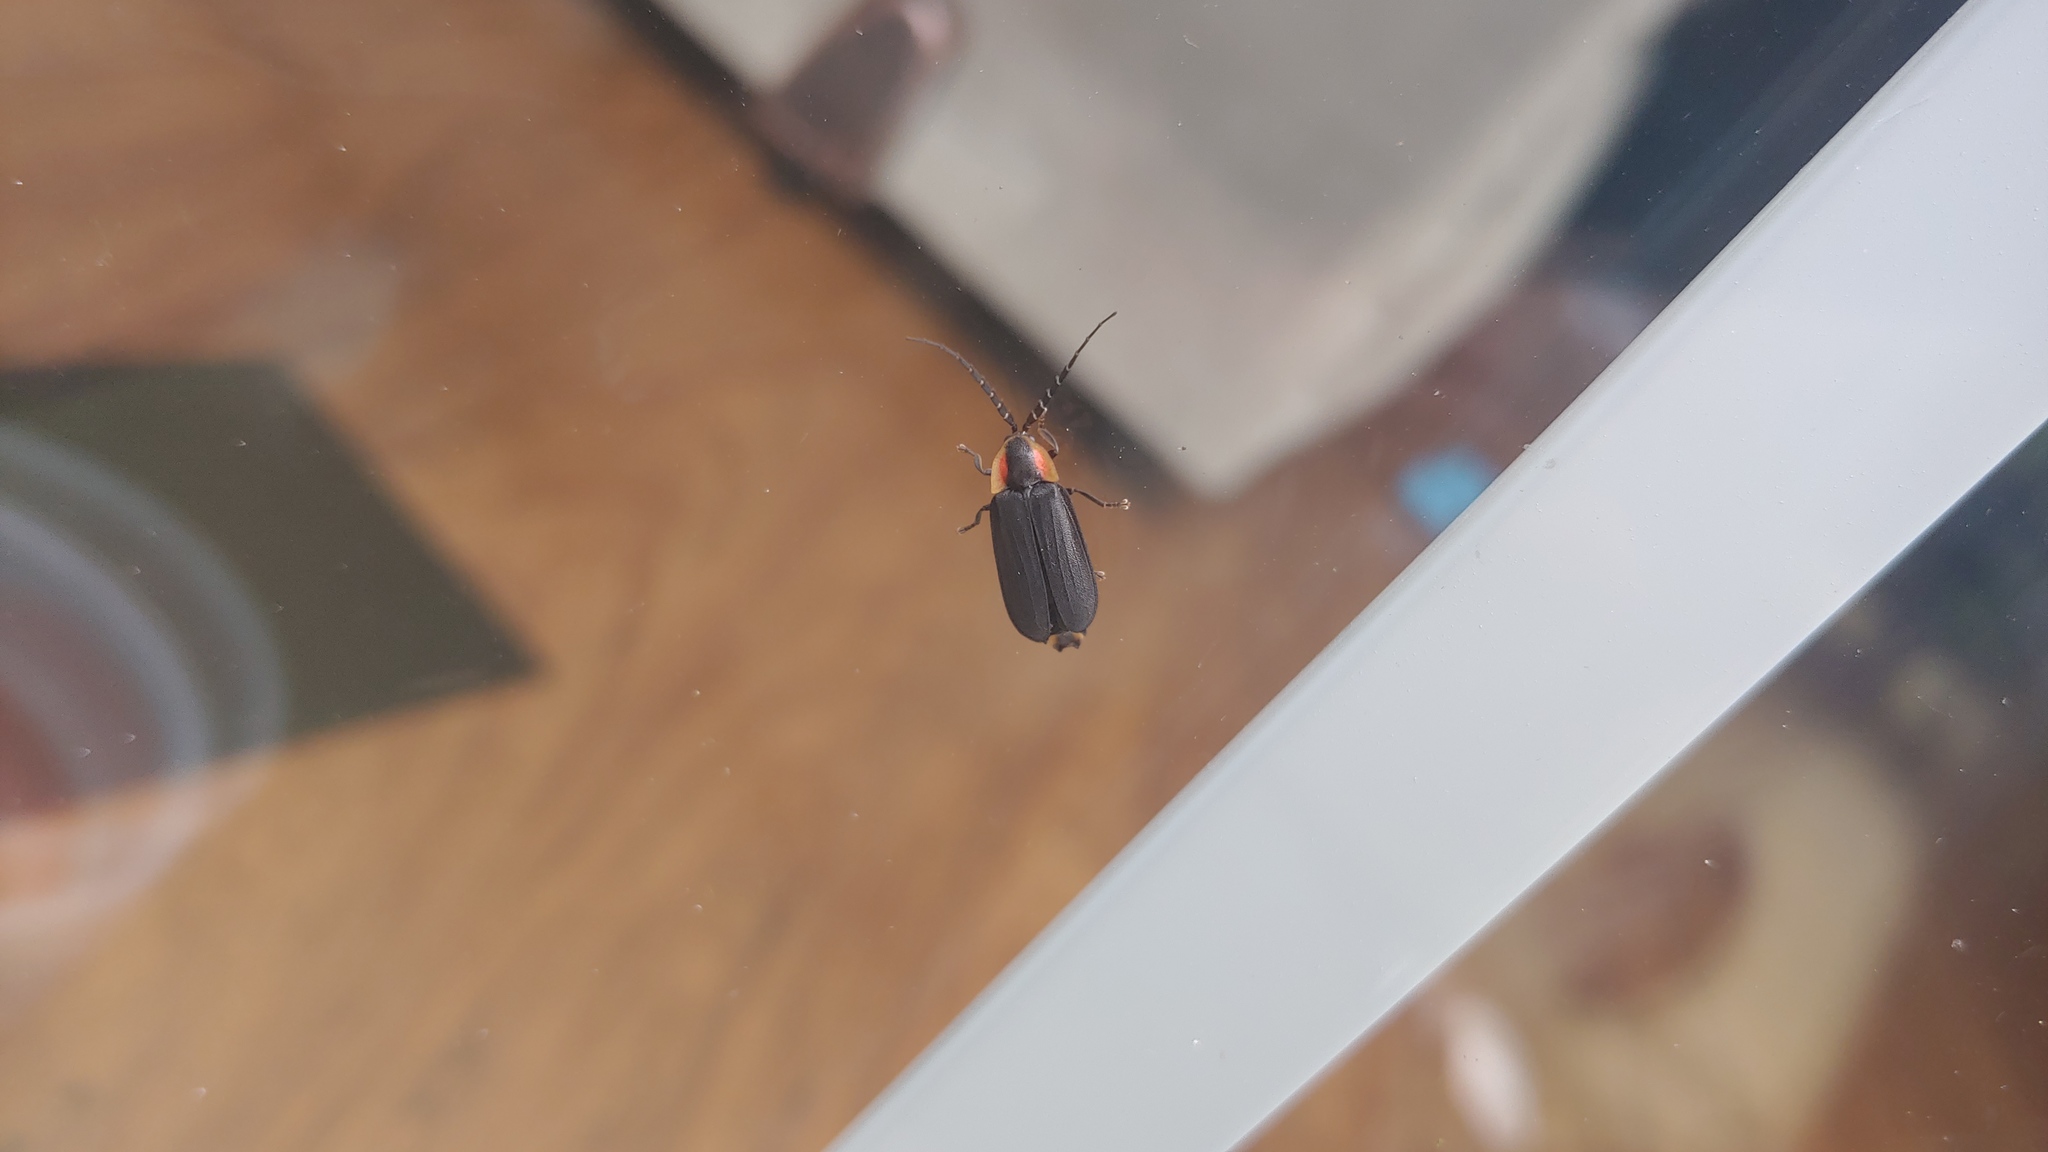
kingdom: Animalia
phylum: Arthropoda
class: Insecta
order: Coleoptera
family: Lampyridae
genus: Lucidota
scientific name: Lucidota atra
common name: Black firefly
